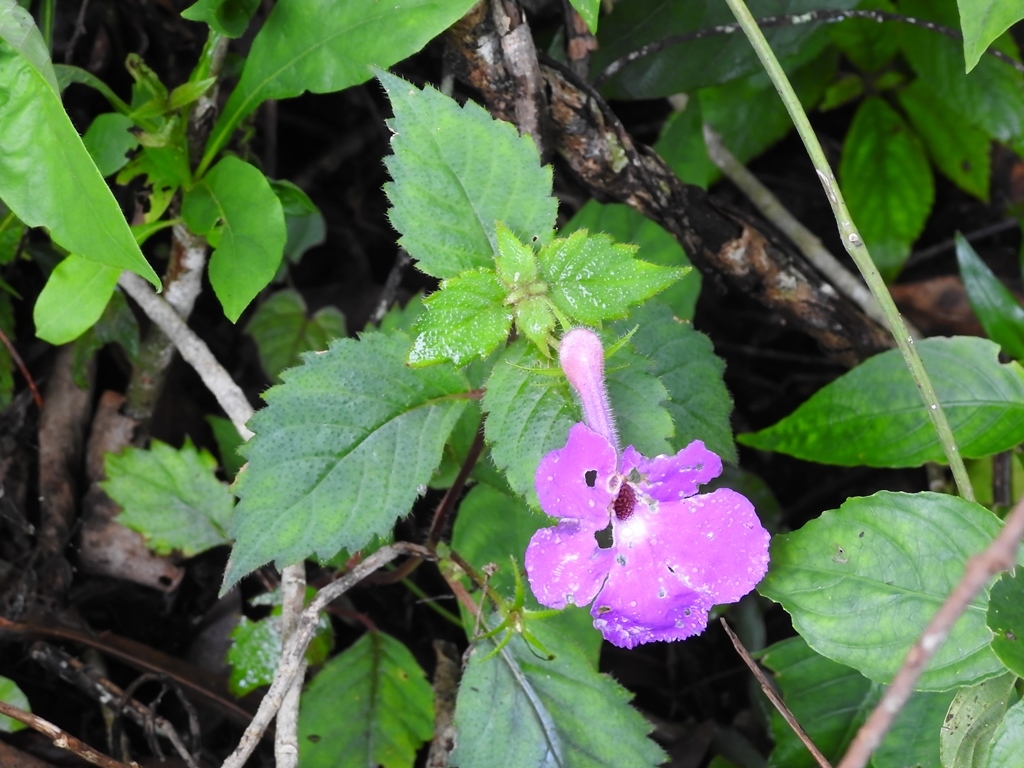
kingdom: Plantae
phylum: Tracheophyta
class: Magnoliopsida
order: Lamiales
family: Gesneriaceae
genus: Achimenes
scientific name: Achimenes grandiflora
